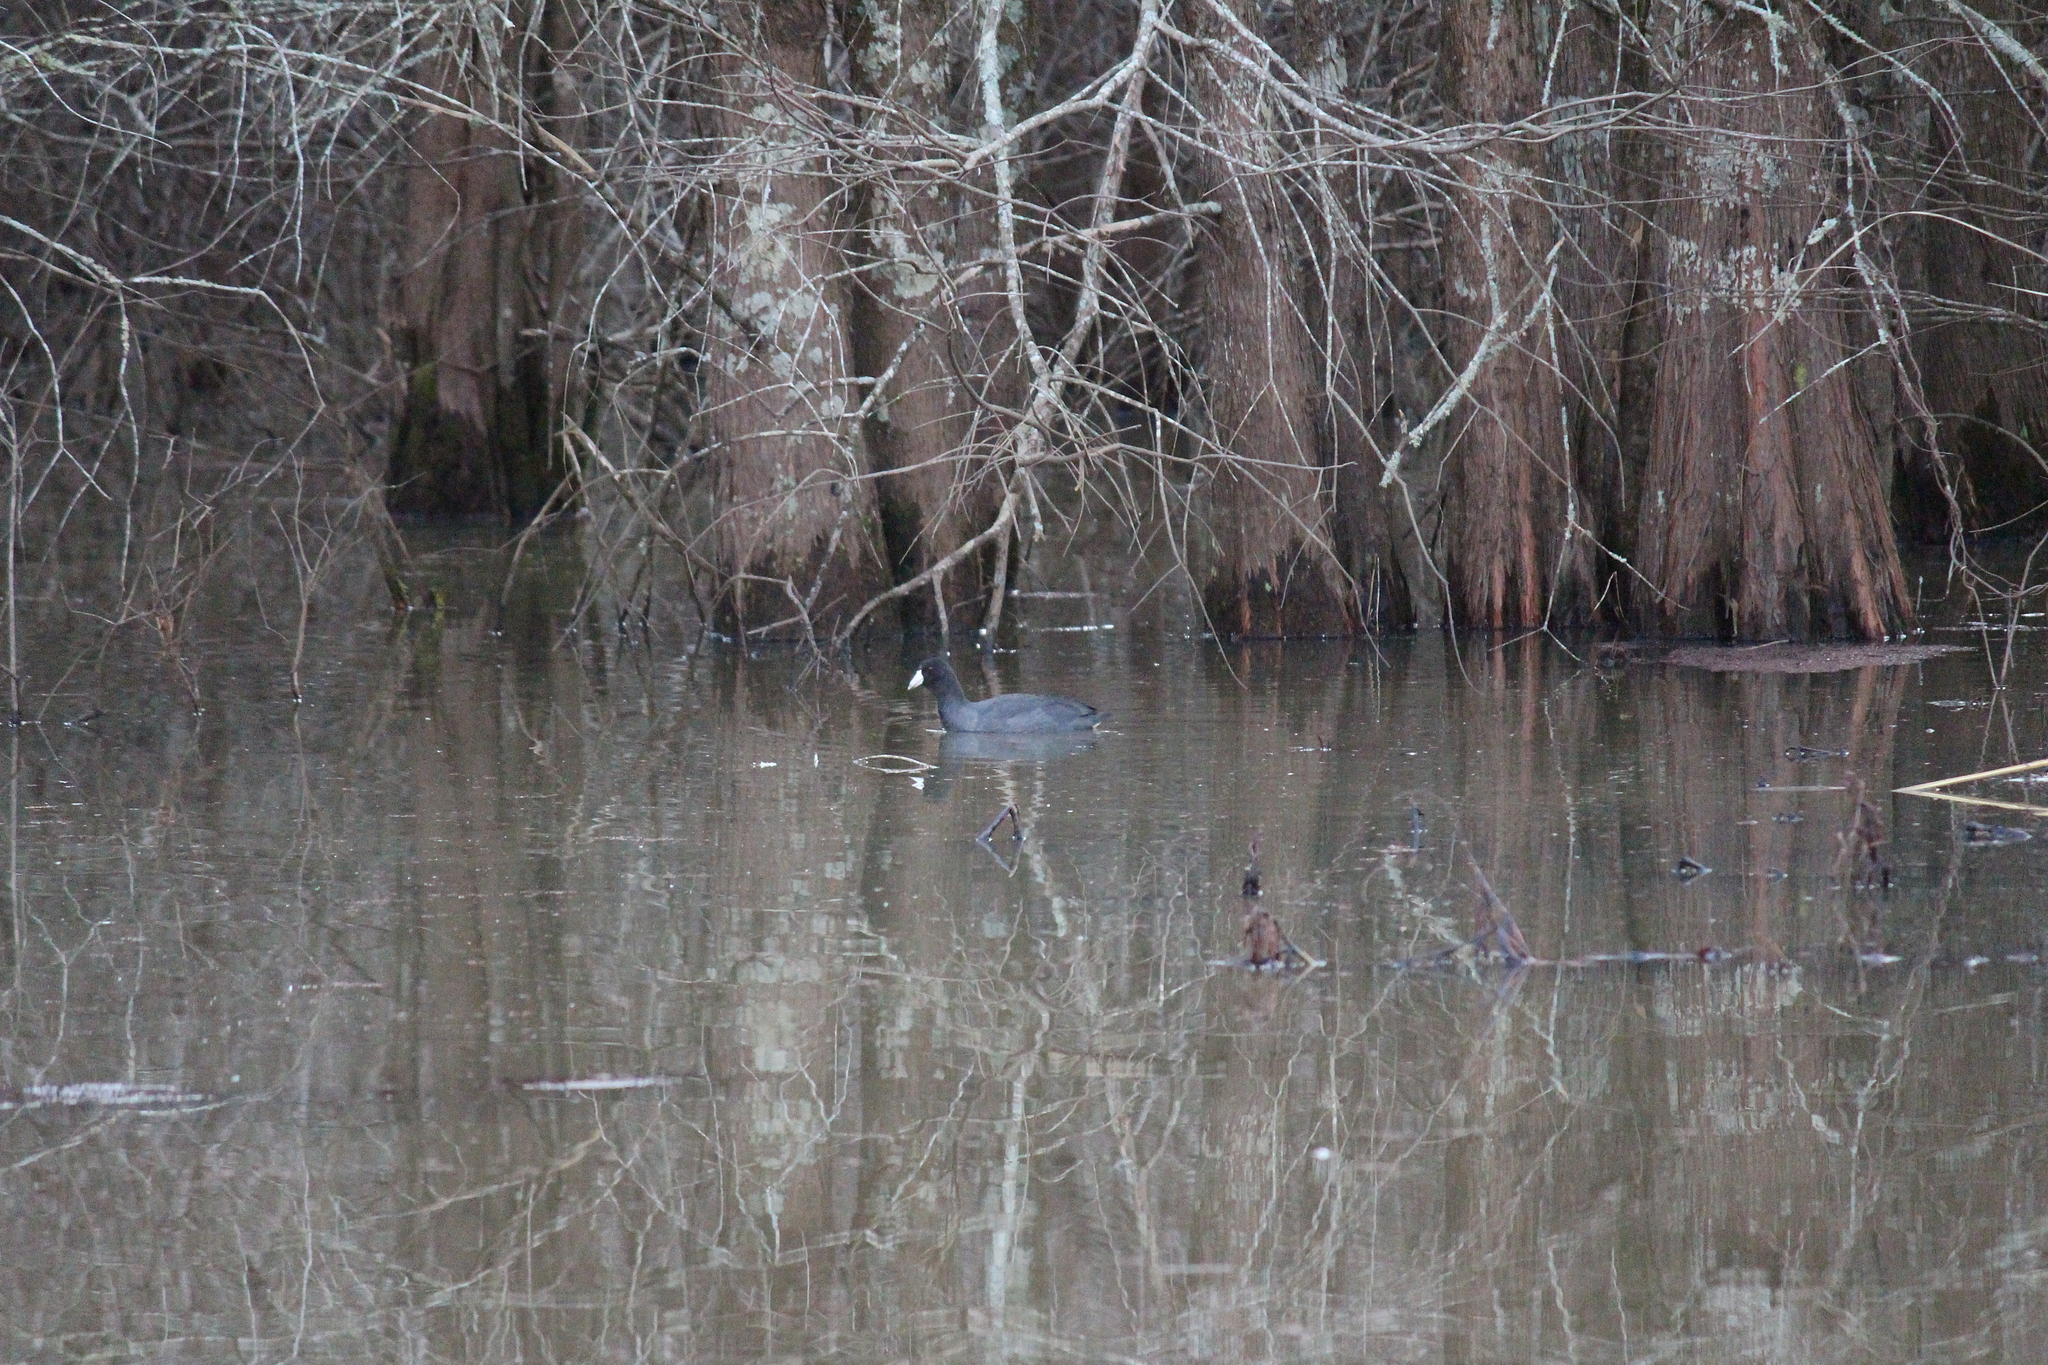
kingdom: Animalia
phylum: Chordata
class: Aves
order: Gruiformes
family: Rallidae
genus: Fulica
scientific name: Fulica americana
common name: American coot
